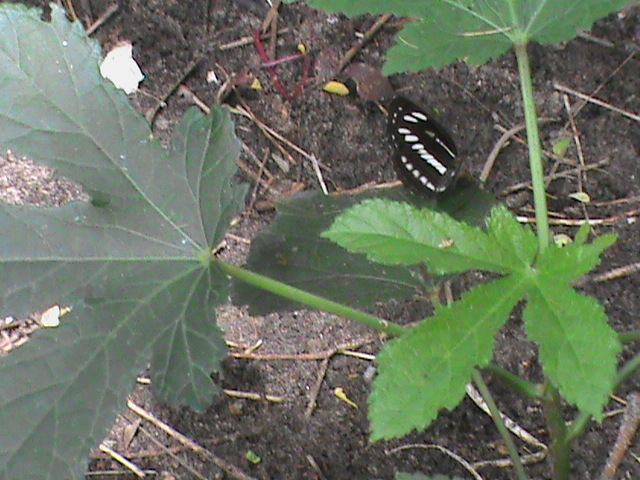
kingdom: Animalia
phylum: Arthropoda
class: Insecta
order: Lepidoptera
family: Nymphalidae
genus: Neptis
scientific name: Neptis clinia
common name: Southern sullied sailer
